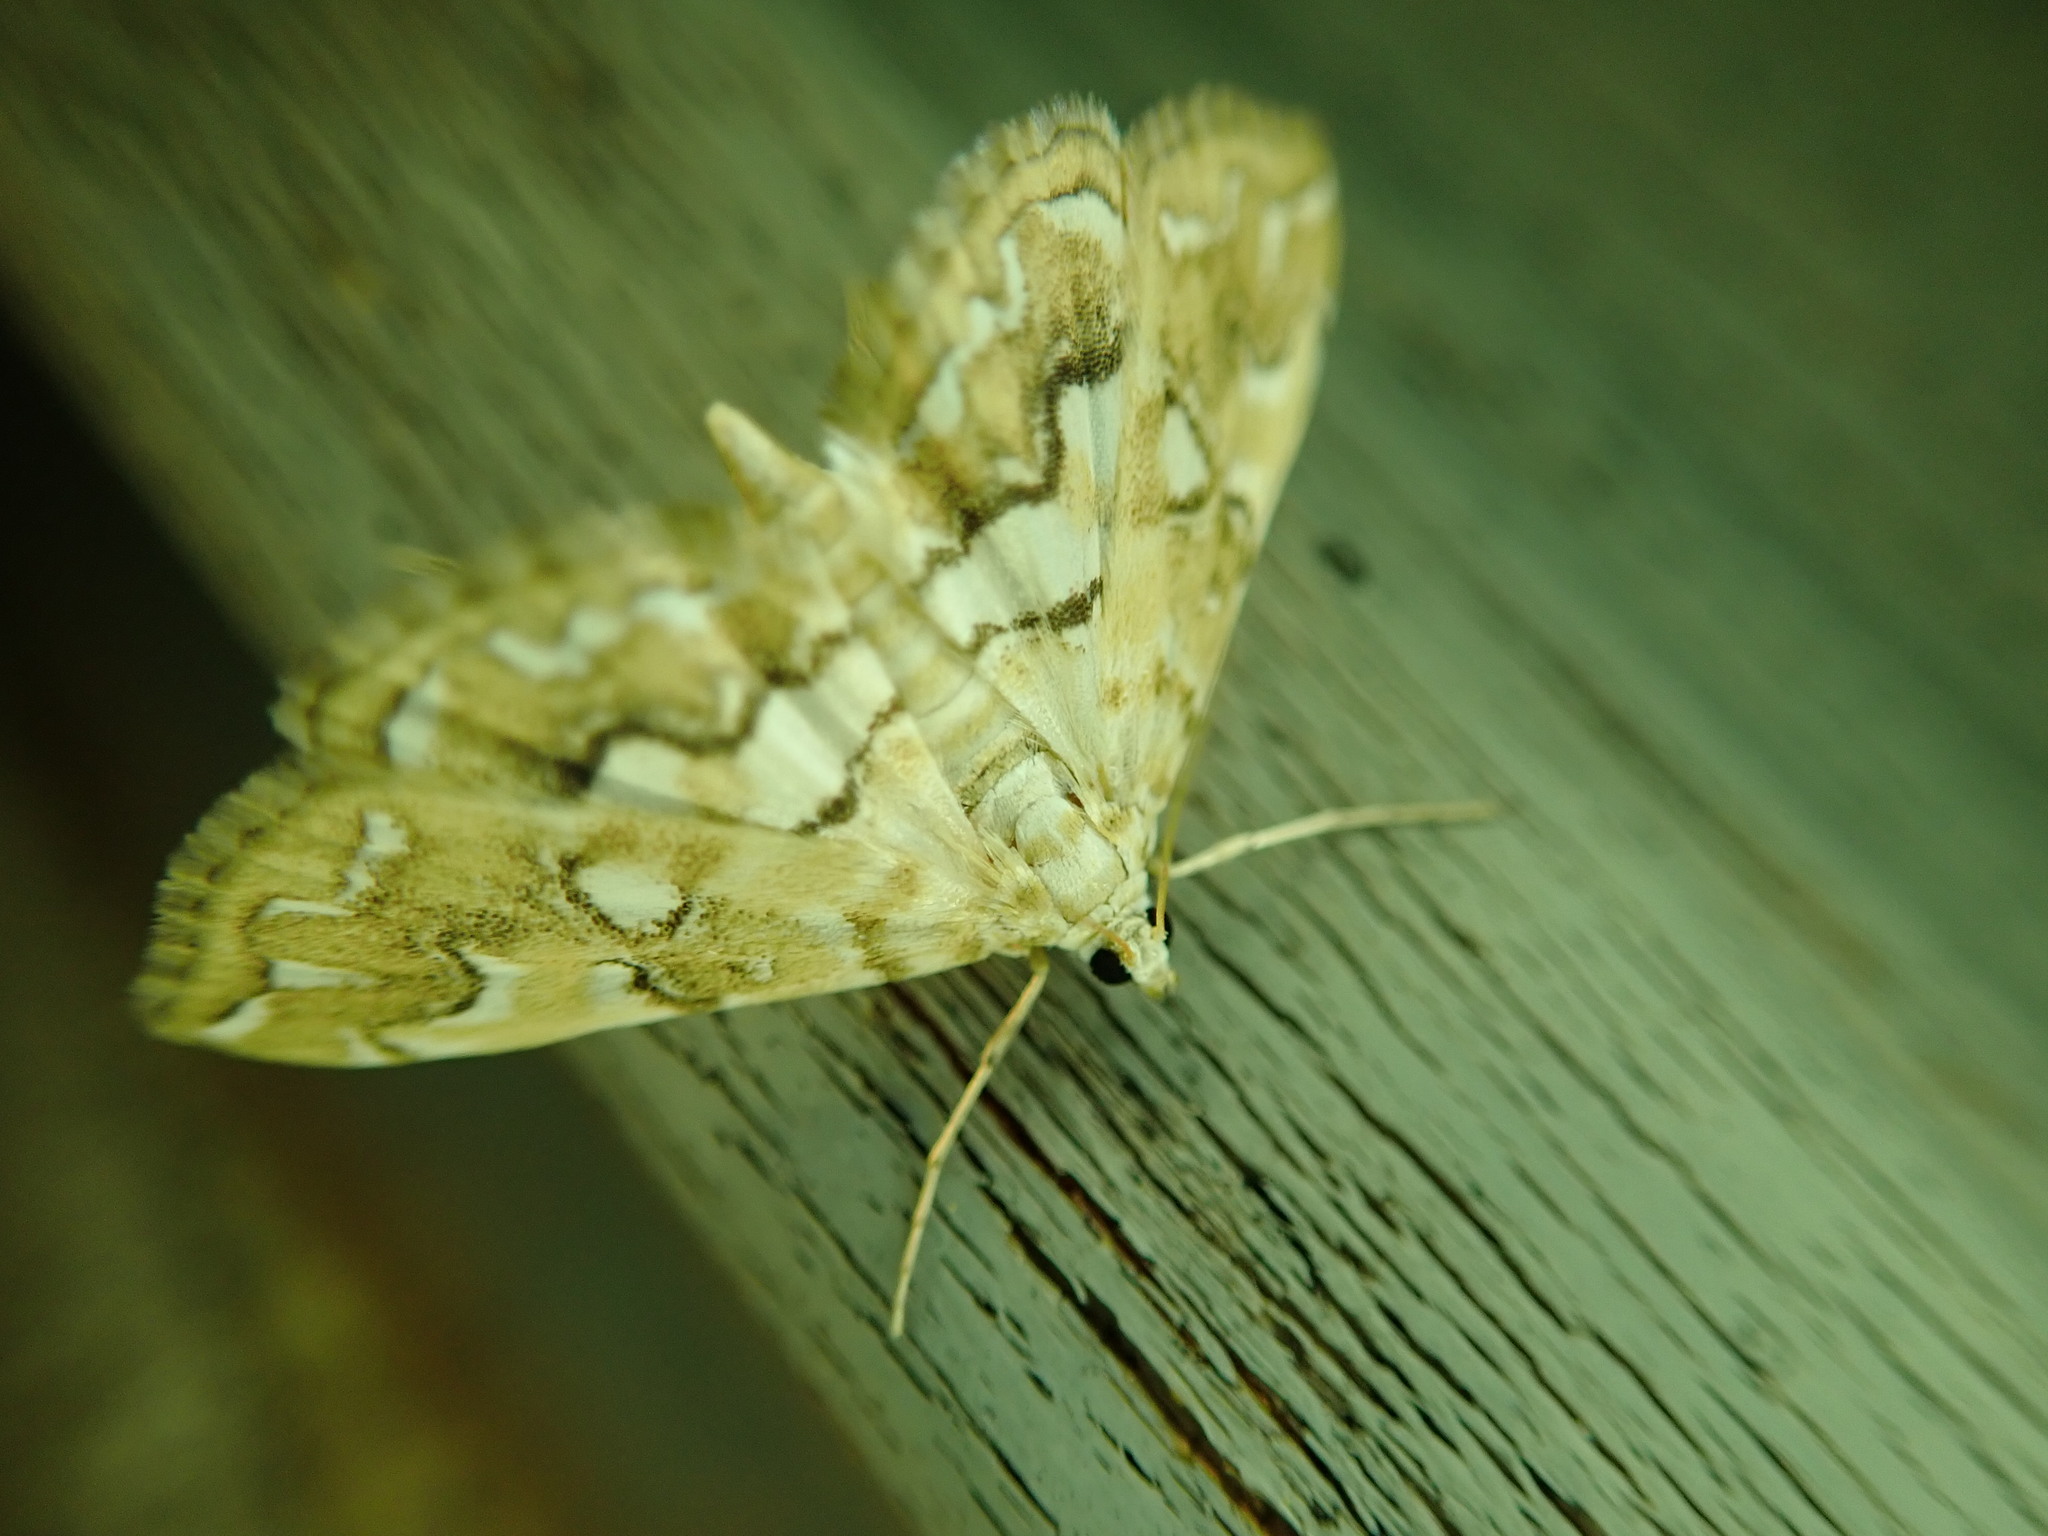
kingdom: Animalia
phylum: Arthropoda
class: Insecta
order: Lepidoptera
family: Crambidae
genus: Elophila
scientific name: Elophila icciusalis
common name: Pondside pyralid moth
